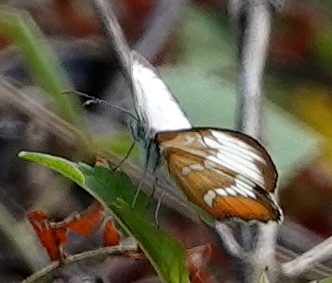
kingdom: Animalia
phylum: Arthropoda
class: Insecta
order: Lepidoptera
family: Nymphalidae
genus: Mestra
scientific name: Mestra amymone
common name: Common mestra
